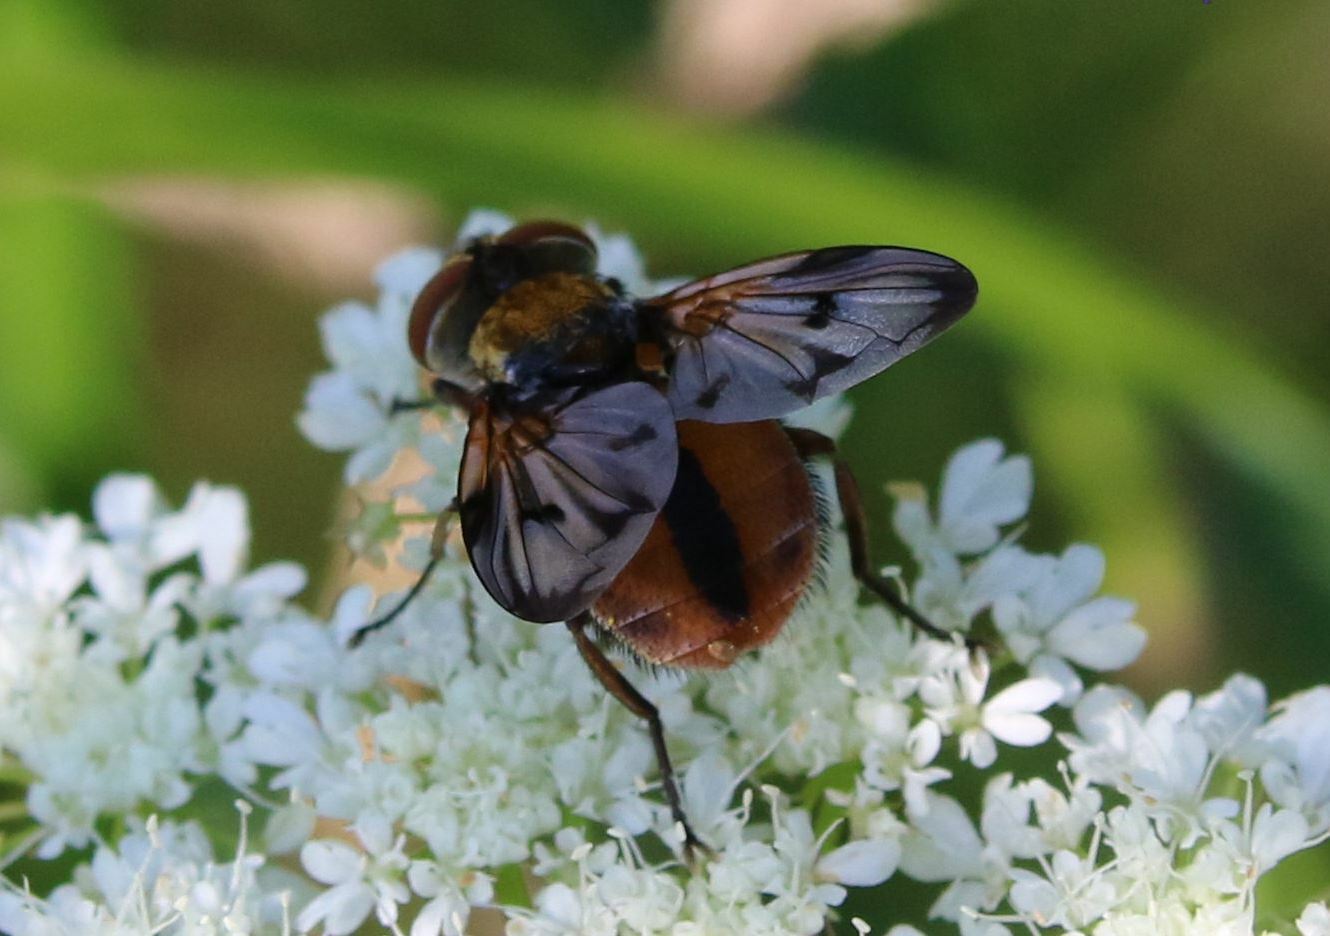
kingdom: Animalia
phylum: Arthropoda
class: Insecta
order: Diptera
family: Tachinidae
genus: Ectophasia
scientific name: Ectophasia crassipennis
